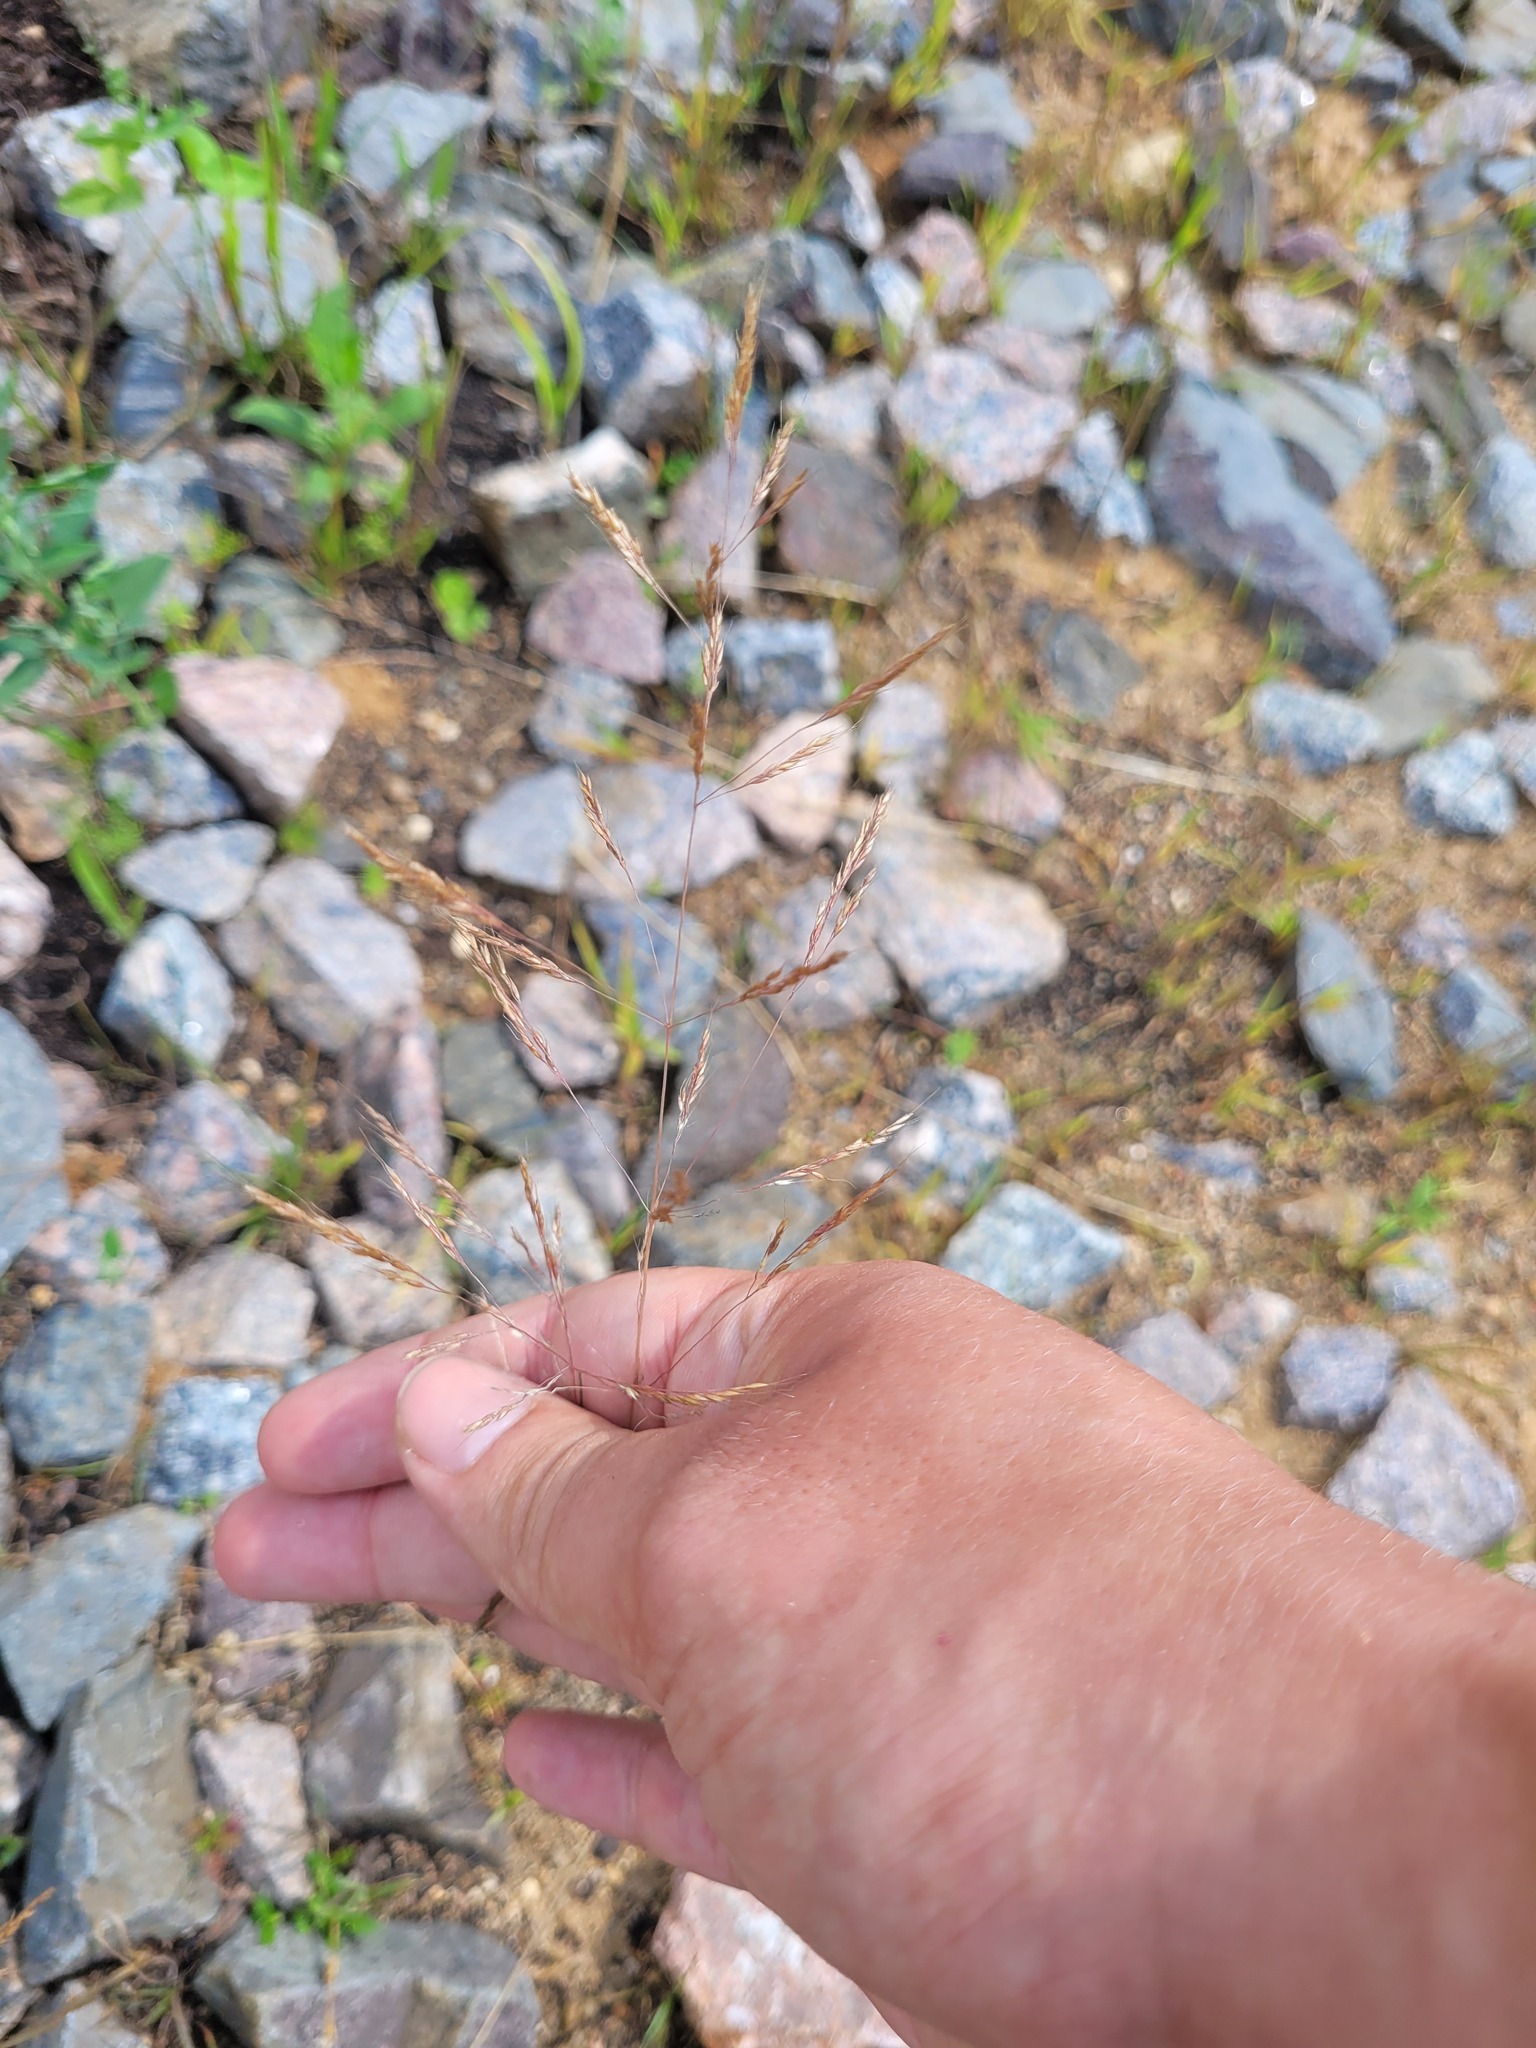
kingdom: Plantae
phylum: Tracheophyta
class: Liliopsida
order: Poales
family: Poaceae
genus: Apera
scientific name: Apera spica-venti
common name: Loose silky-bent
